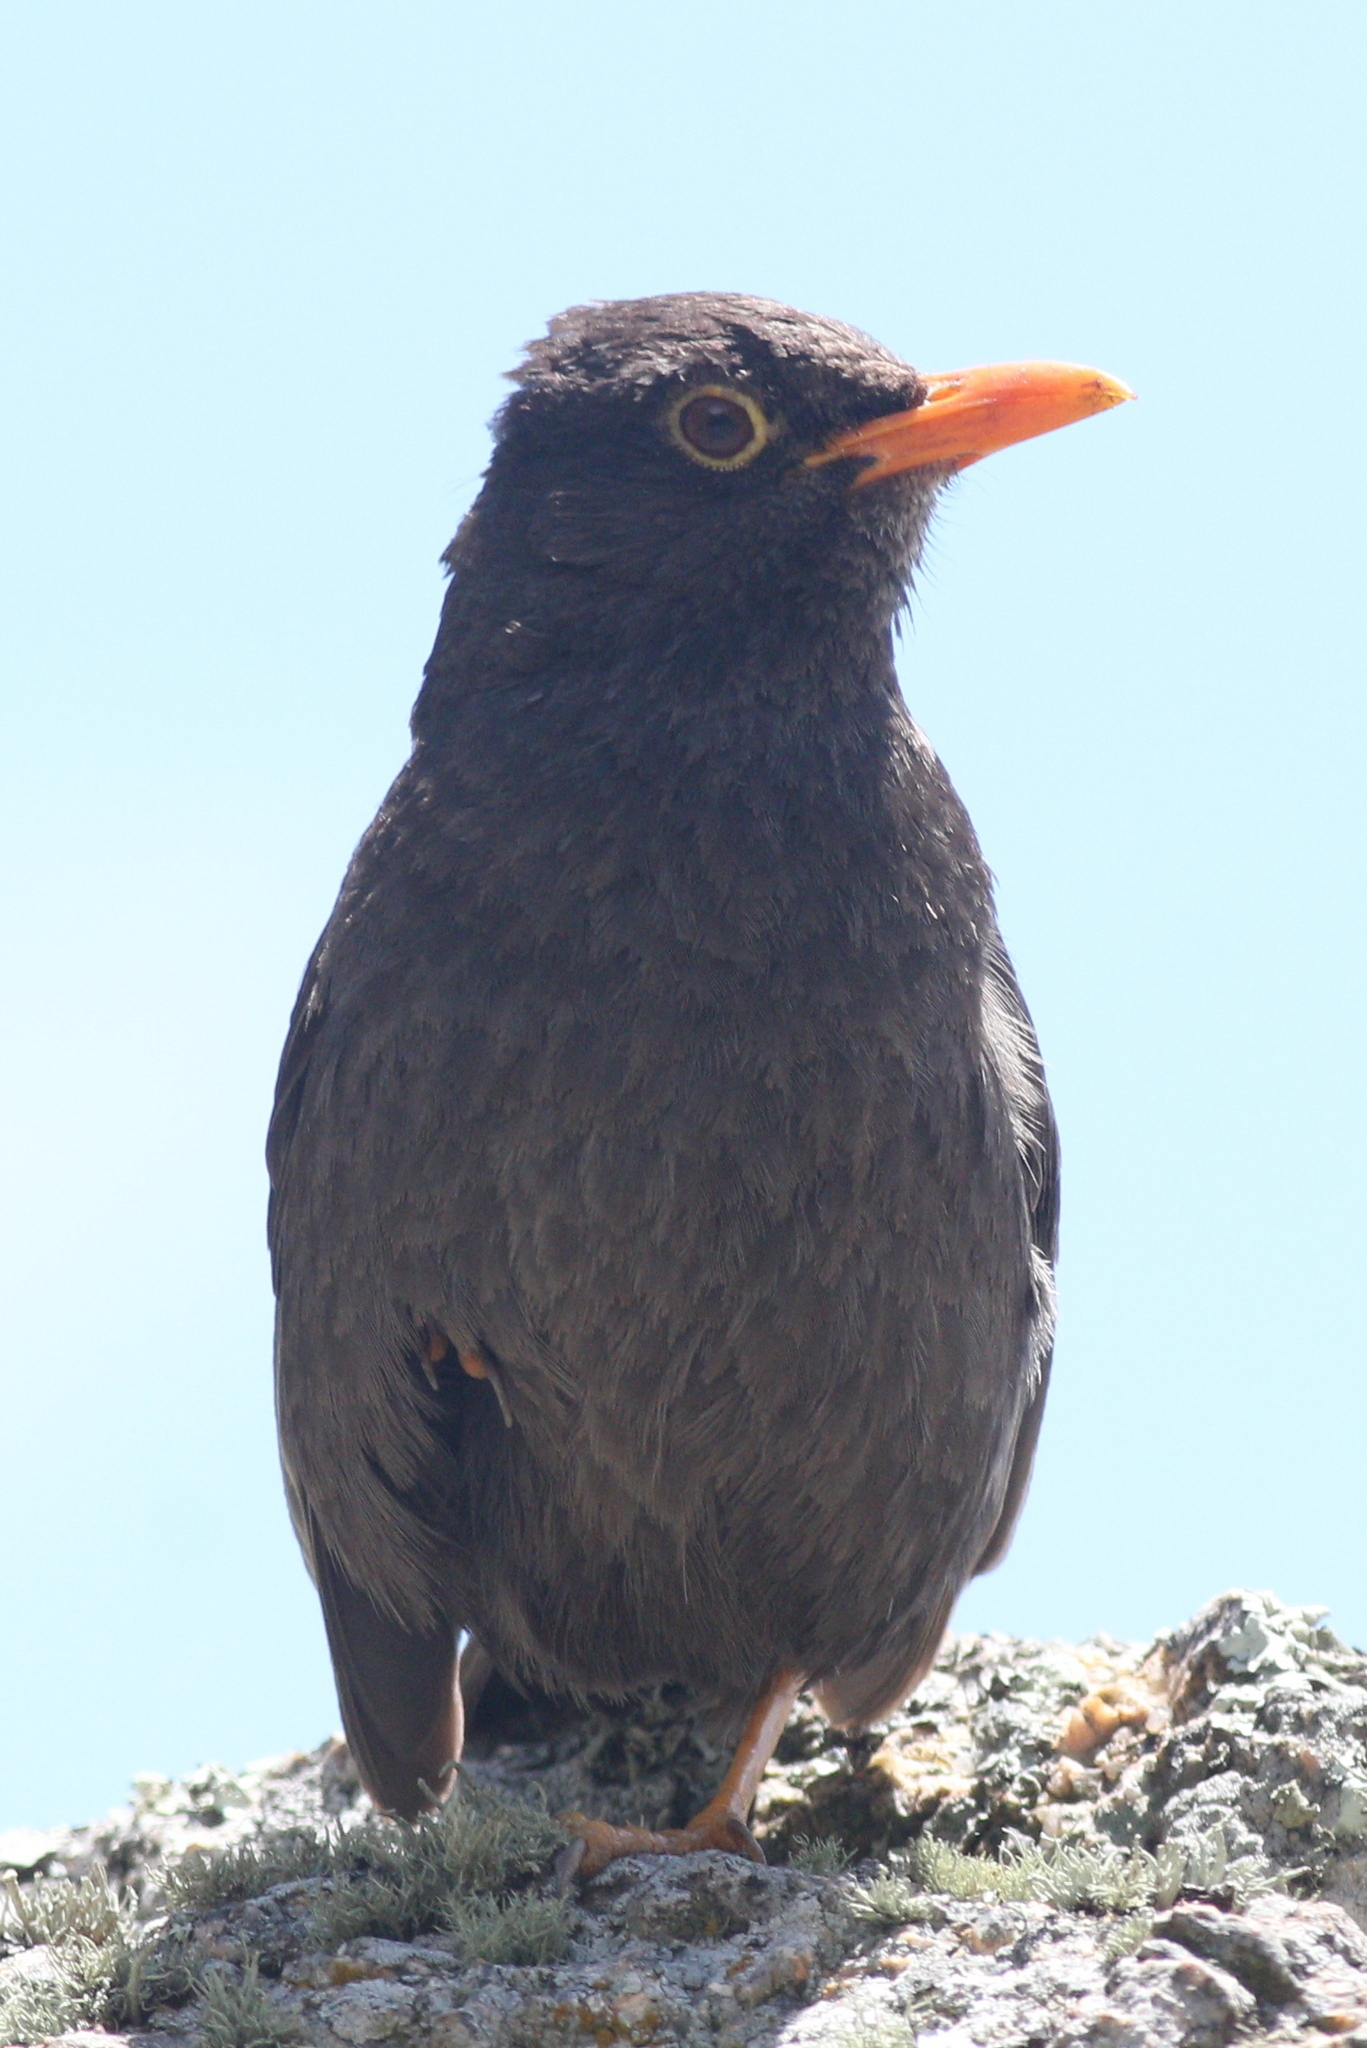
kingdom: Animalia
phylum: Chordata
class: Aves
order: Passeriformes
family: Turdidae
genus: Turdus
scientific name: Turdus chiguanco
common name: Chiguanco thrush
